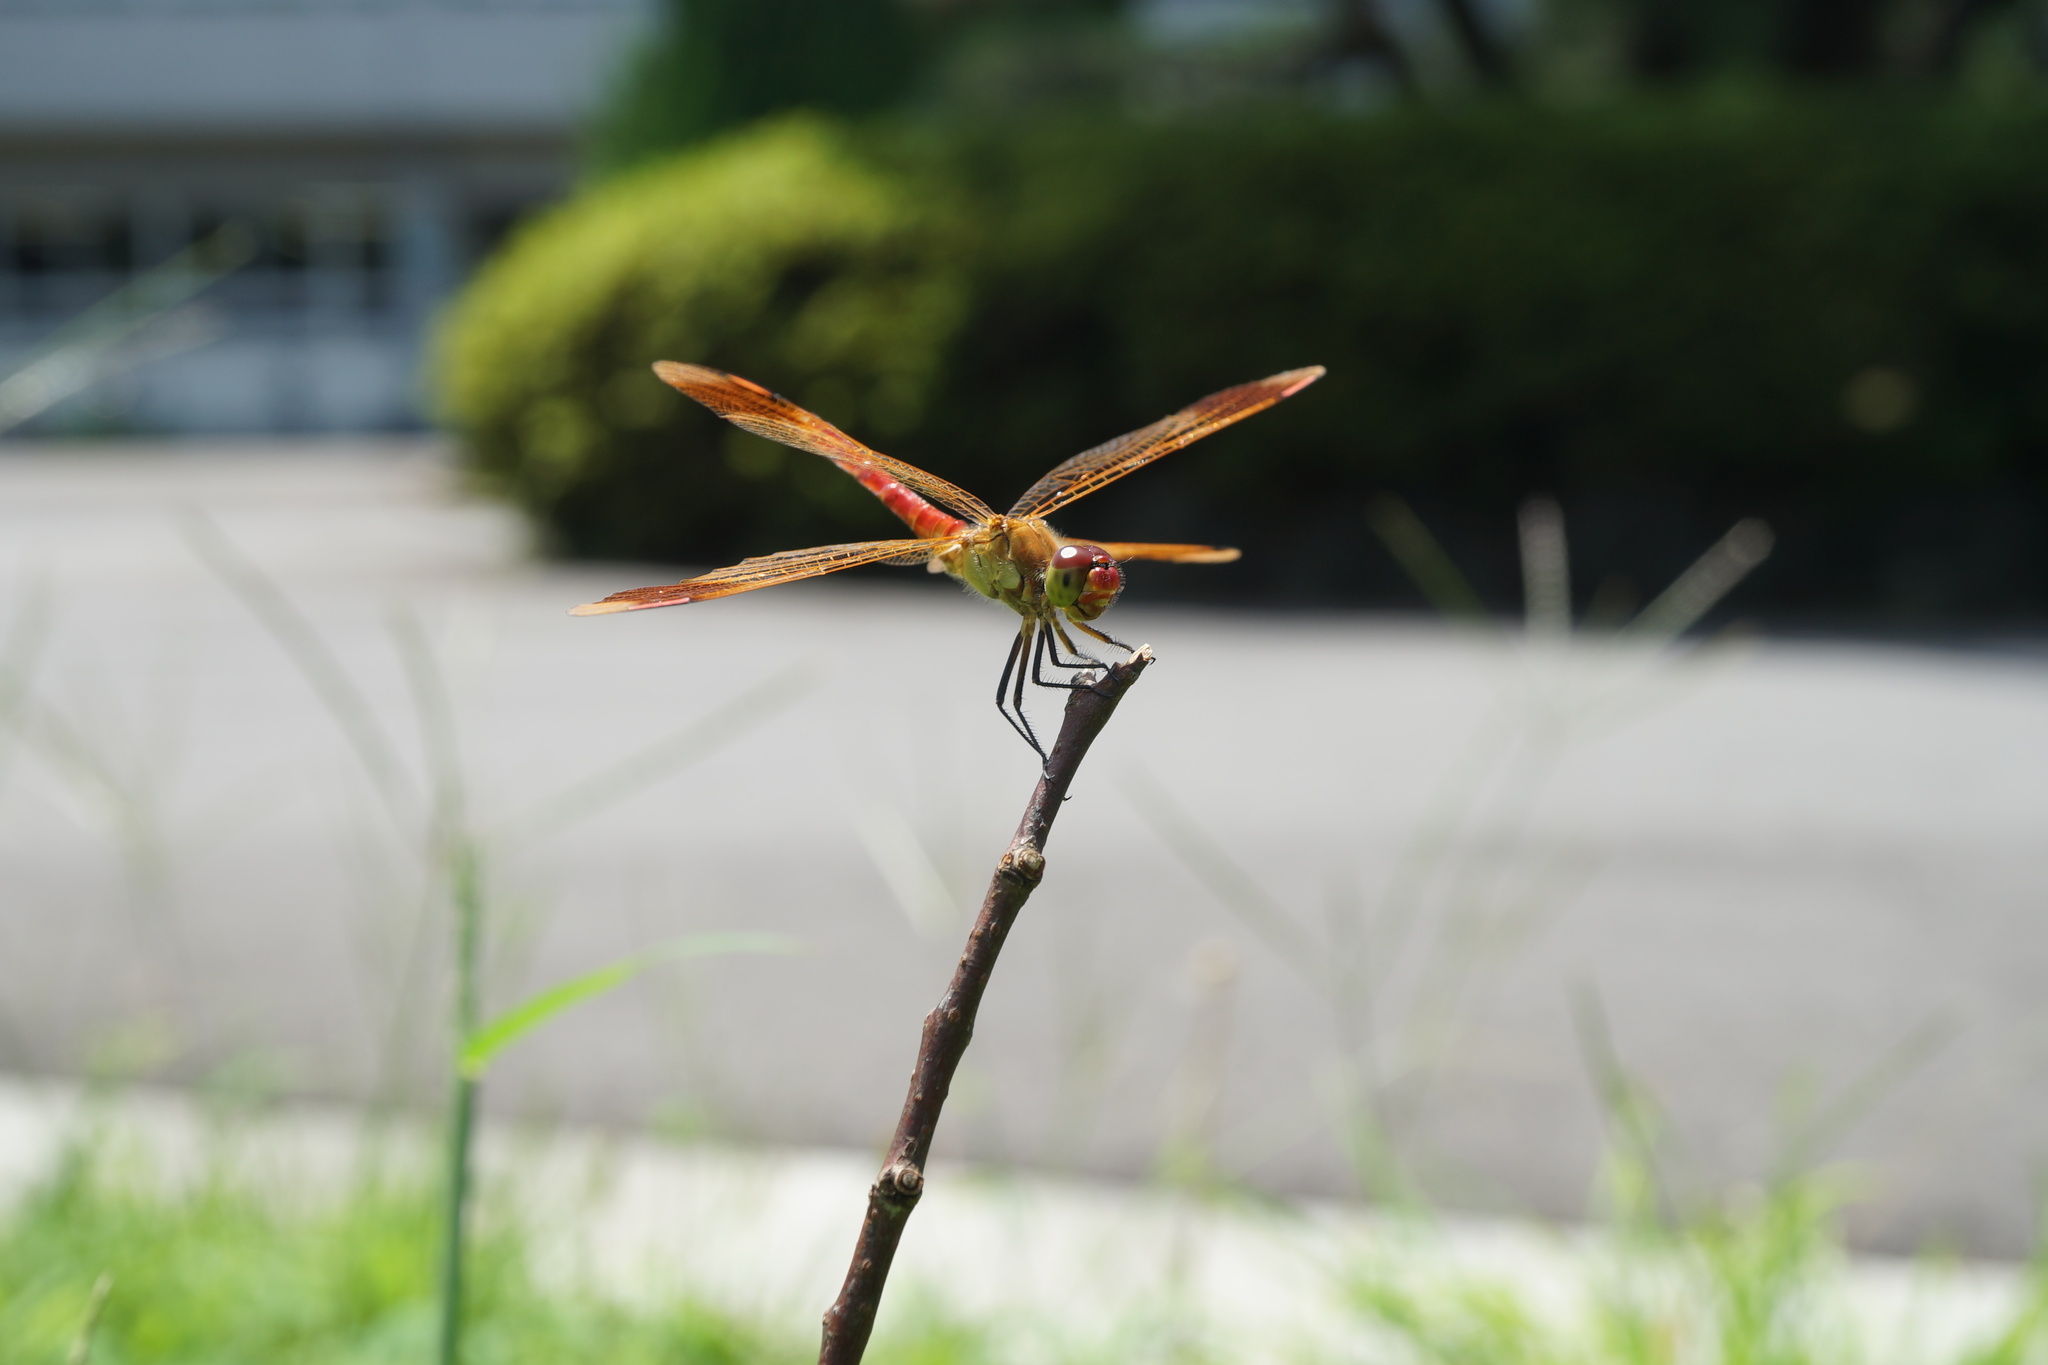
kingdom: Animalia
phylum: Arthropoda
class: Insecta
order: Odonata
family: Libellulidae
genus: Sympetrum
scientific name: Sympetrum pedemontanum
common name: Banded darter
